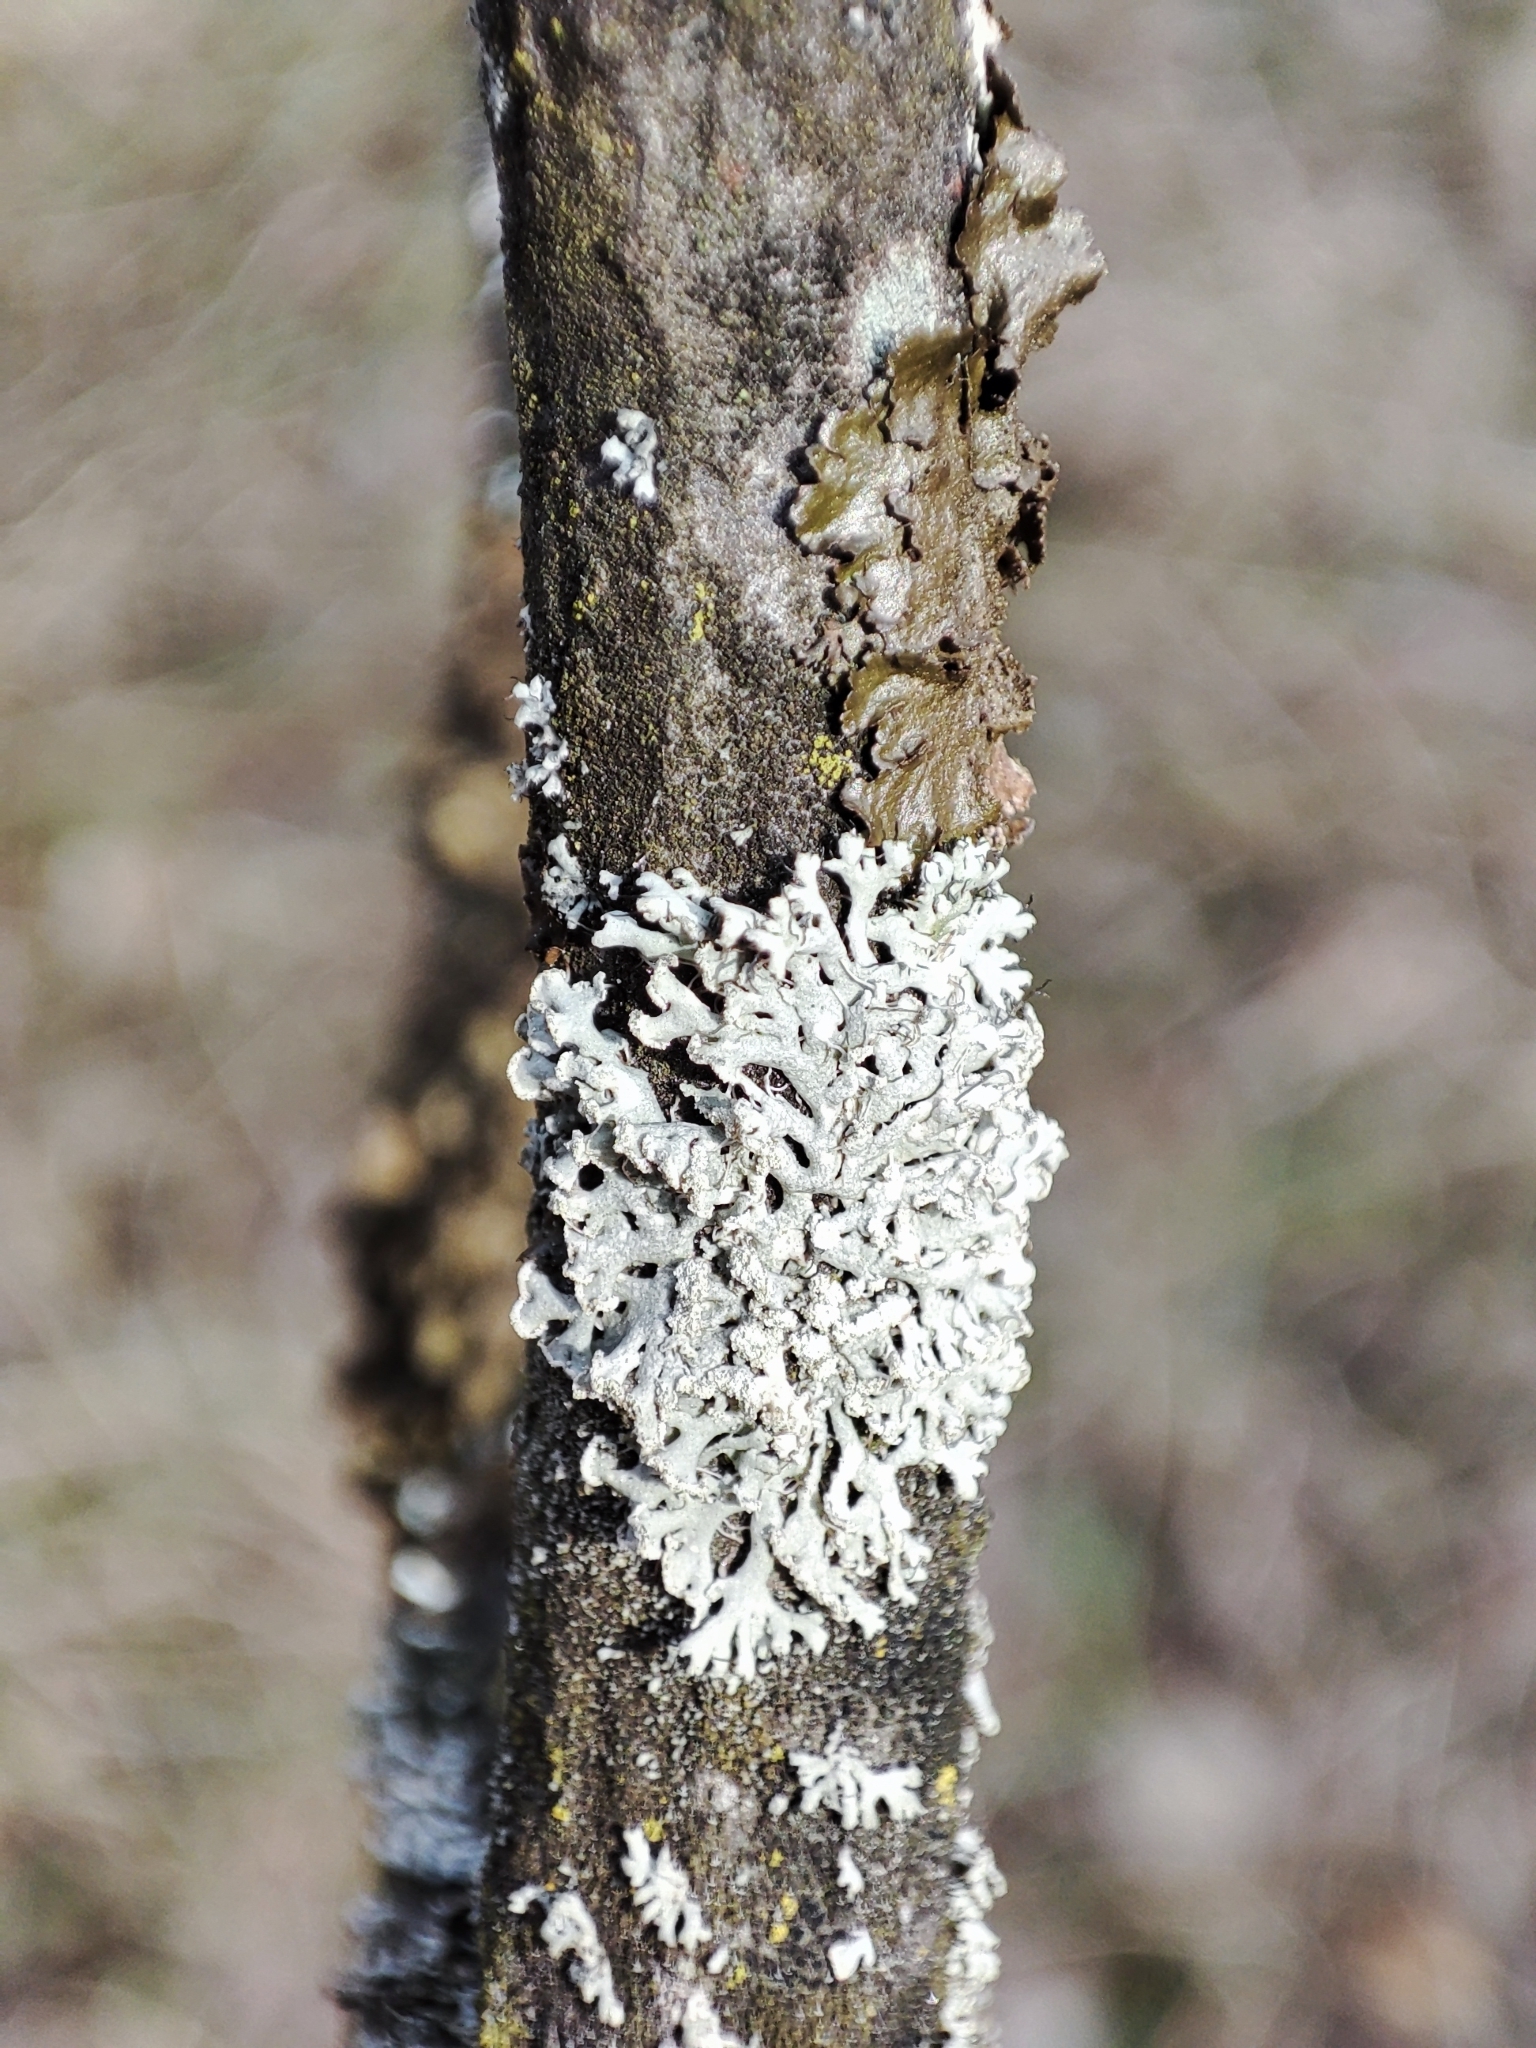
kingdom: Fungi
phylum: Ascomycota
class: Lecanoromycetes
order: Caliciales
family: Physciaceae
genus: Physcia
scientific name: Physcia dubia
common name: Powder-tipped rosette lichen
